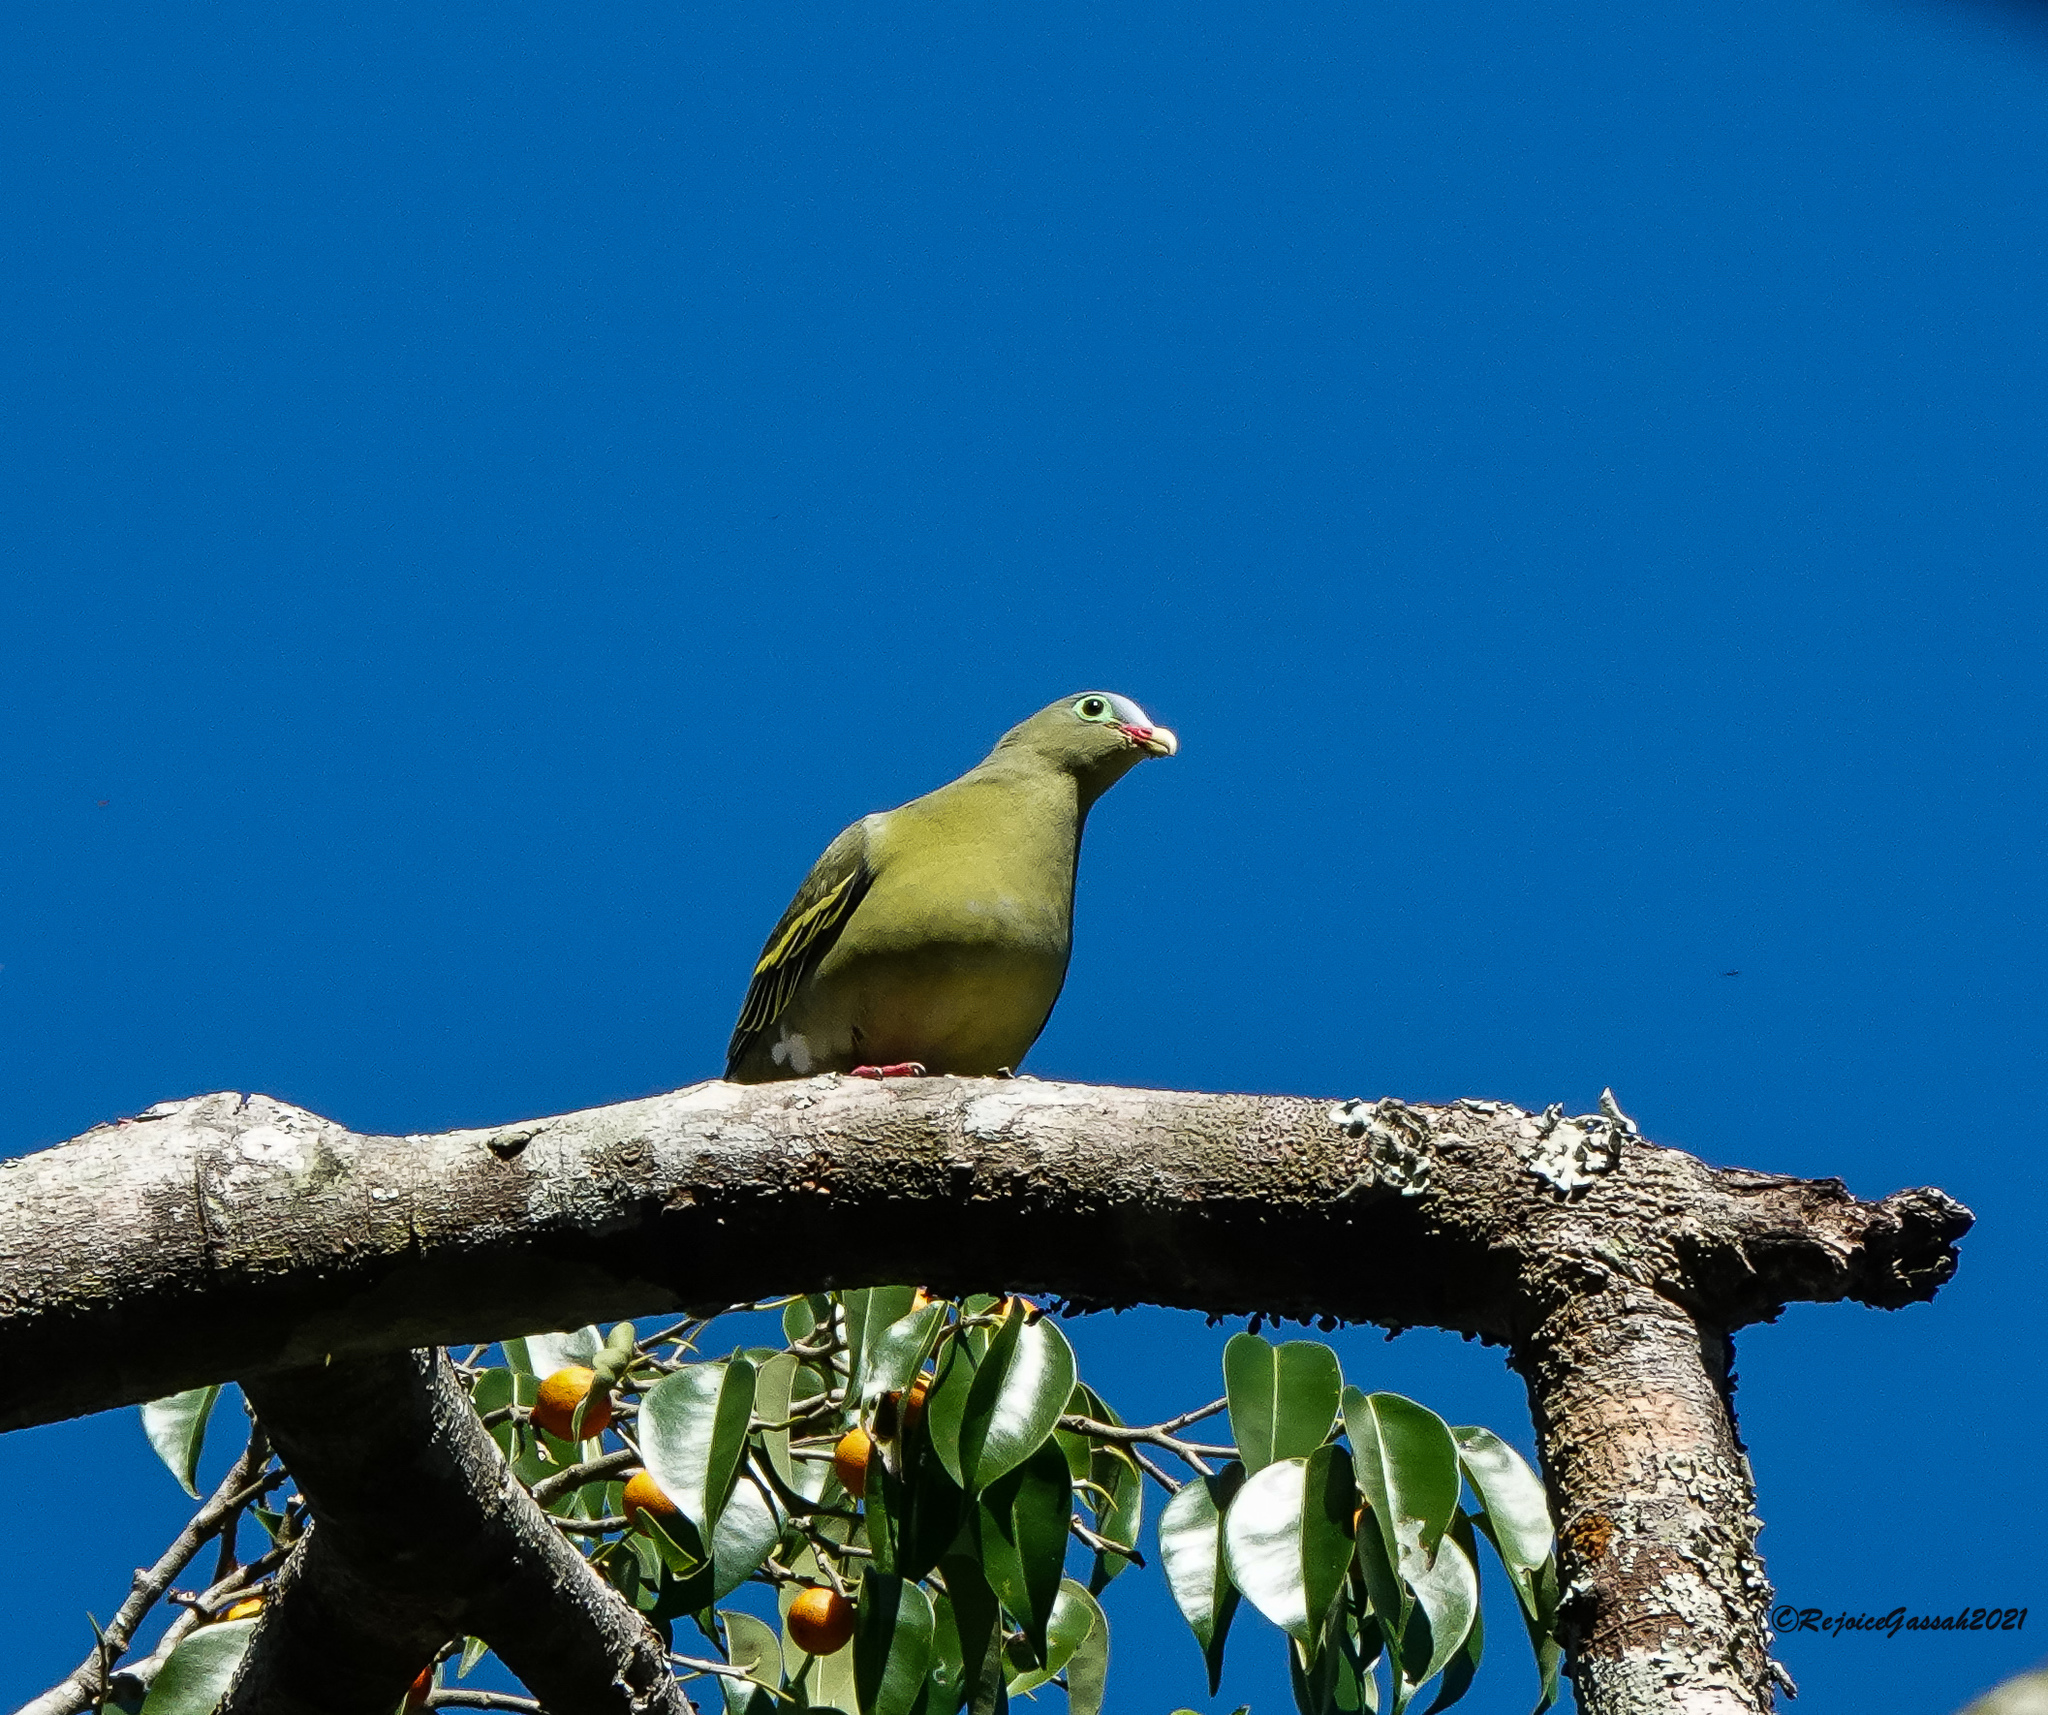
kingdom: Animalia
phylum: Chordata
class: Aves
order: Columbiformes
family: Columbidae
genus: Treron
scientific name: Treron curvirostra
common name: Thick-billed green pigeon
